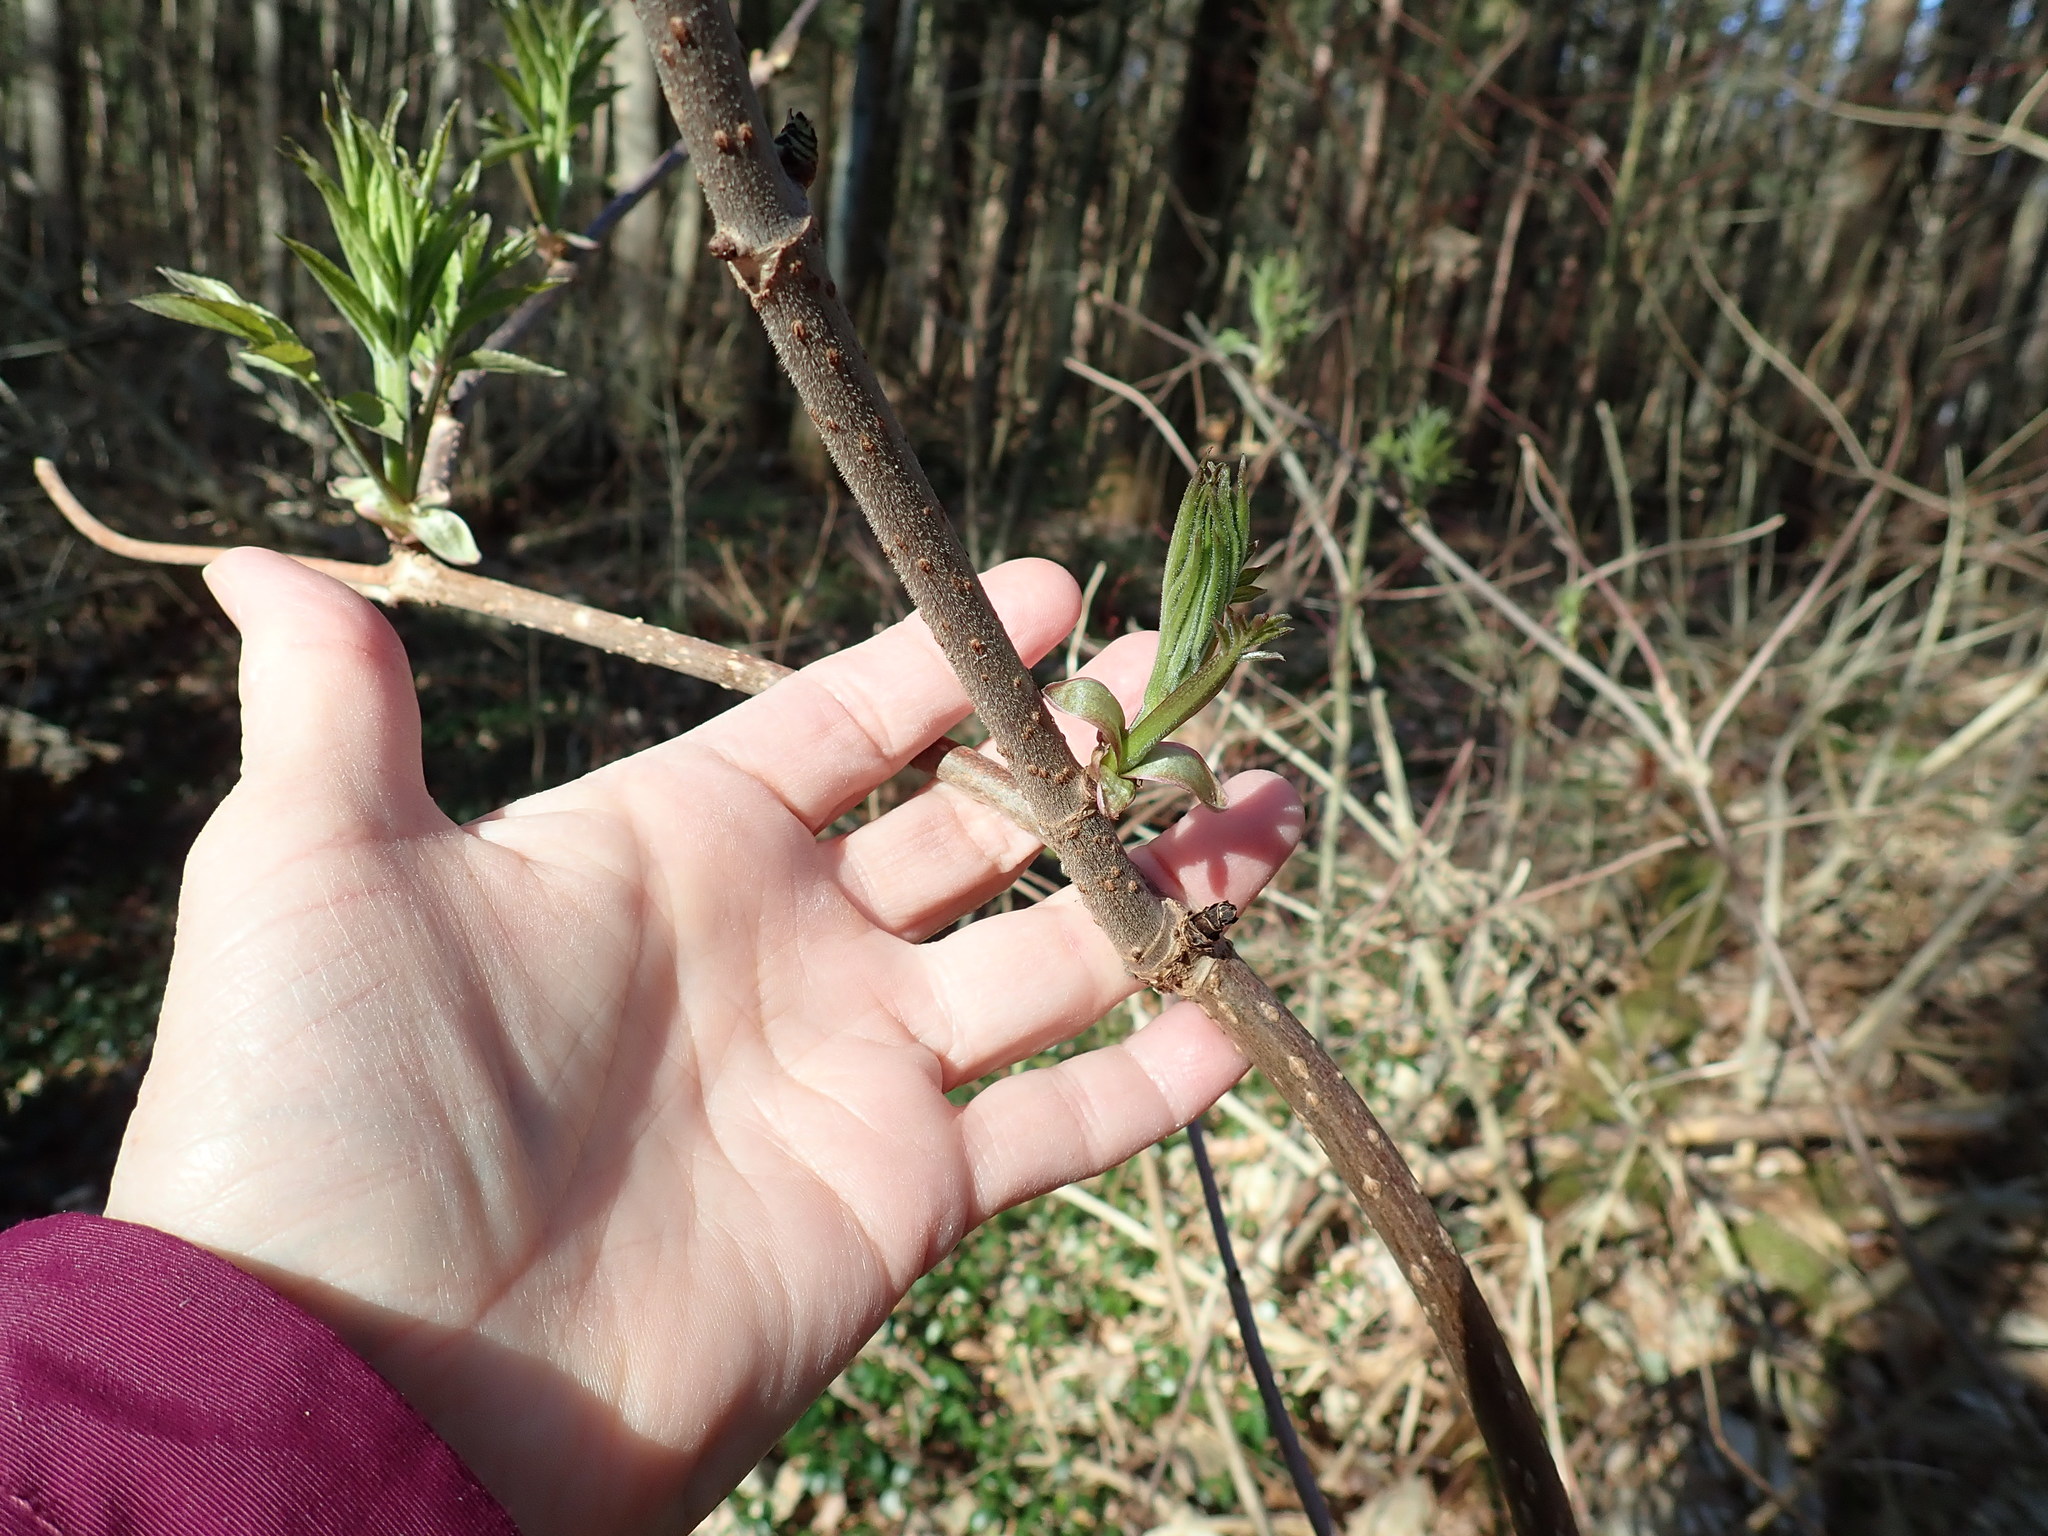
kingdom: Plantae
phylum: Tracheophyta
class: Magnoliopsida
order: Dipsacales
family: Viburnaceae
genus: Sambucus
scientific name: Sambucus racemosa
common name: Red-berried elder
